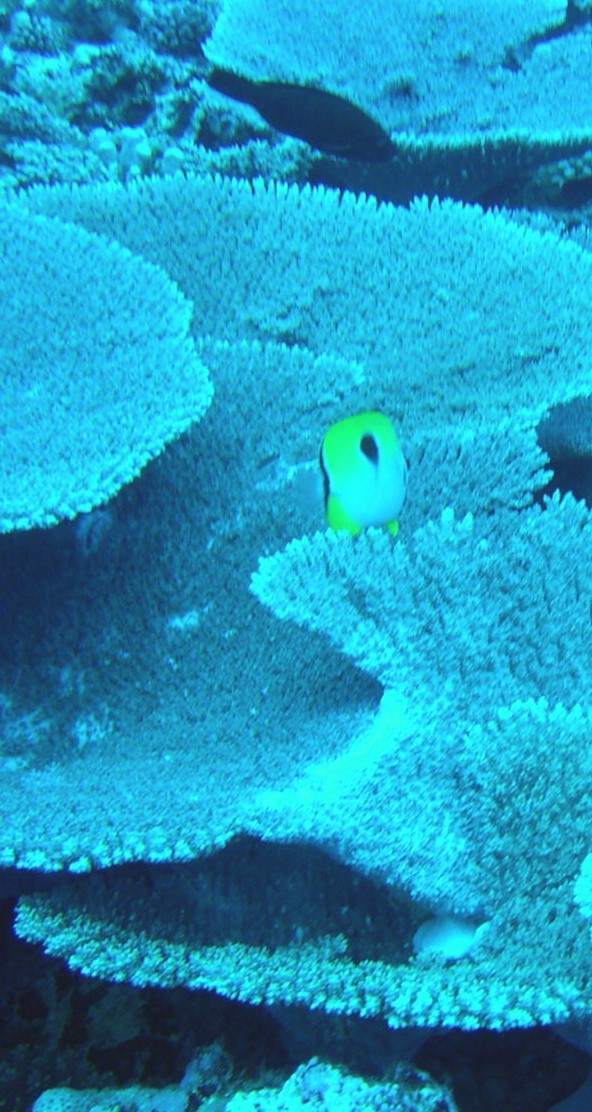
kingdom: Animalia
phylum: Chordata
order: Perciformes
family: Chaetodontidae
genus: Chaetodon
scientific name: Chaetodon unimaculatus
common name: Teardrop butterflyfish
